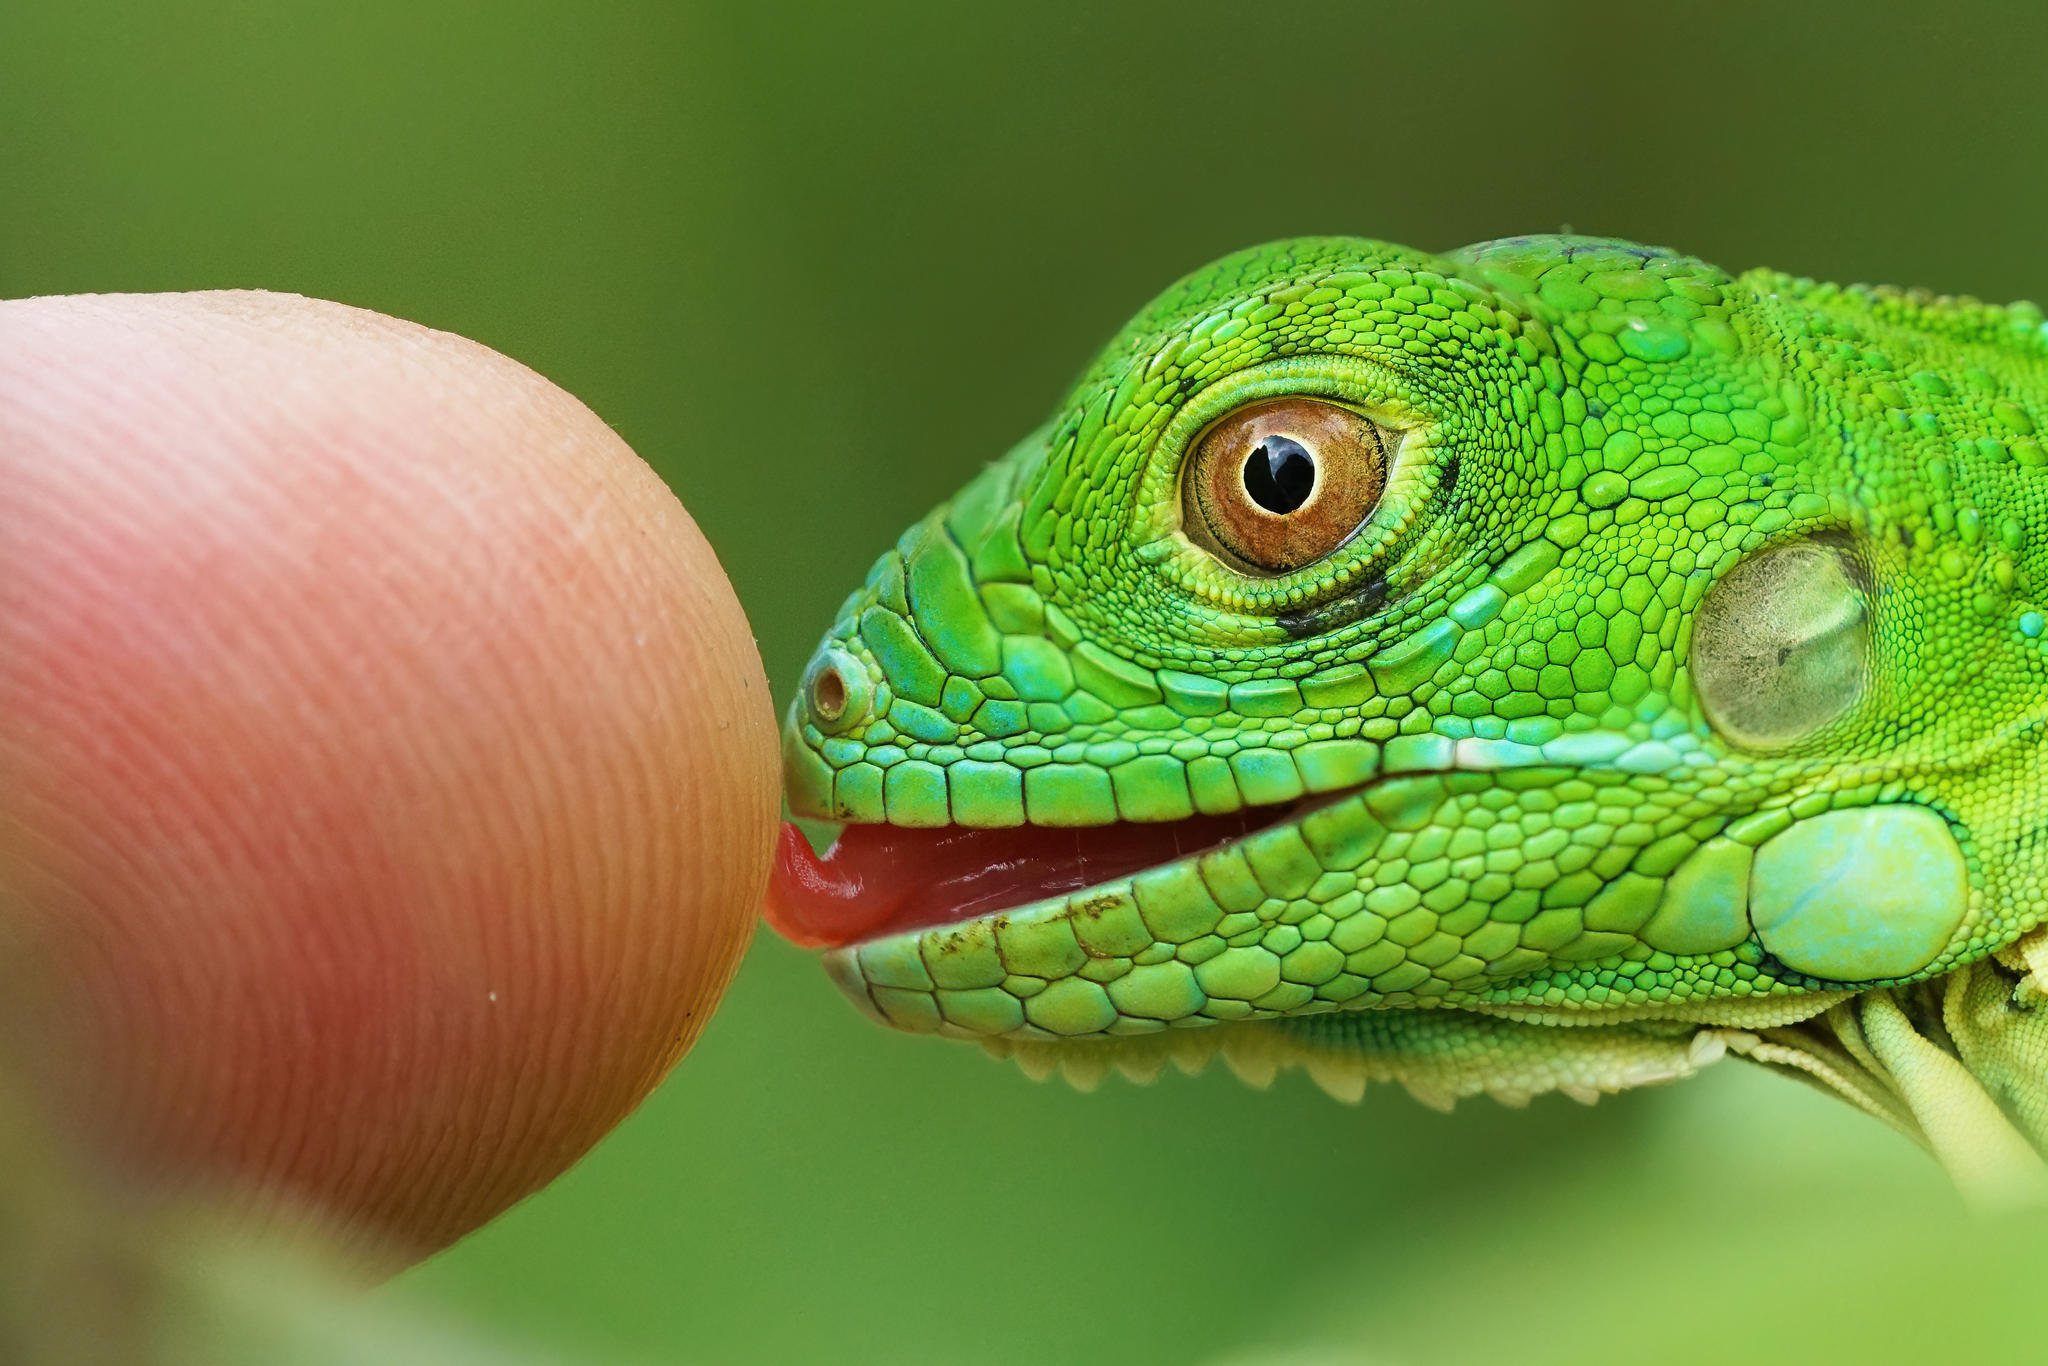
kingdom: Animalia
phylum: Chordata
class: Squamata
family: Iguanidae
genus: Iguana
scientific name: Iguana iguana
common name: Green iguana
